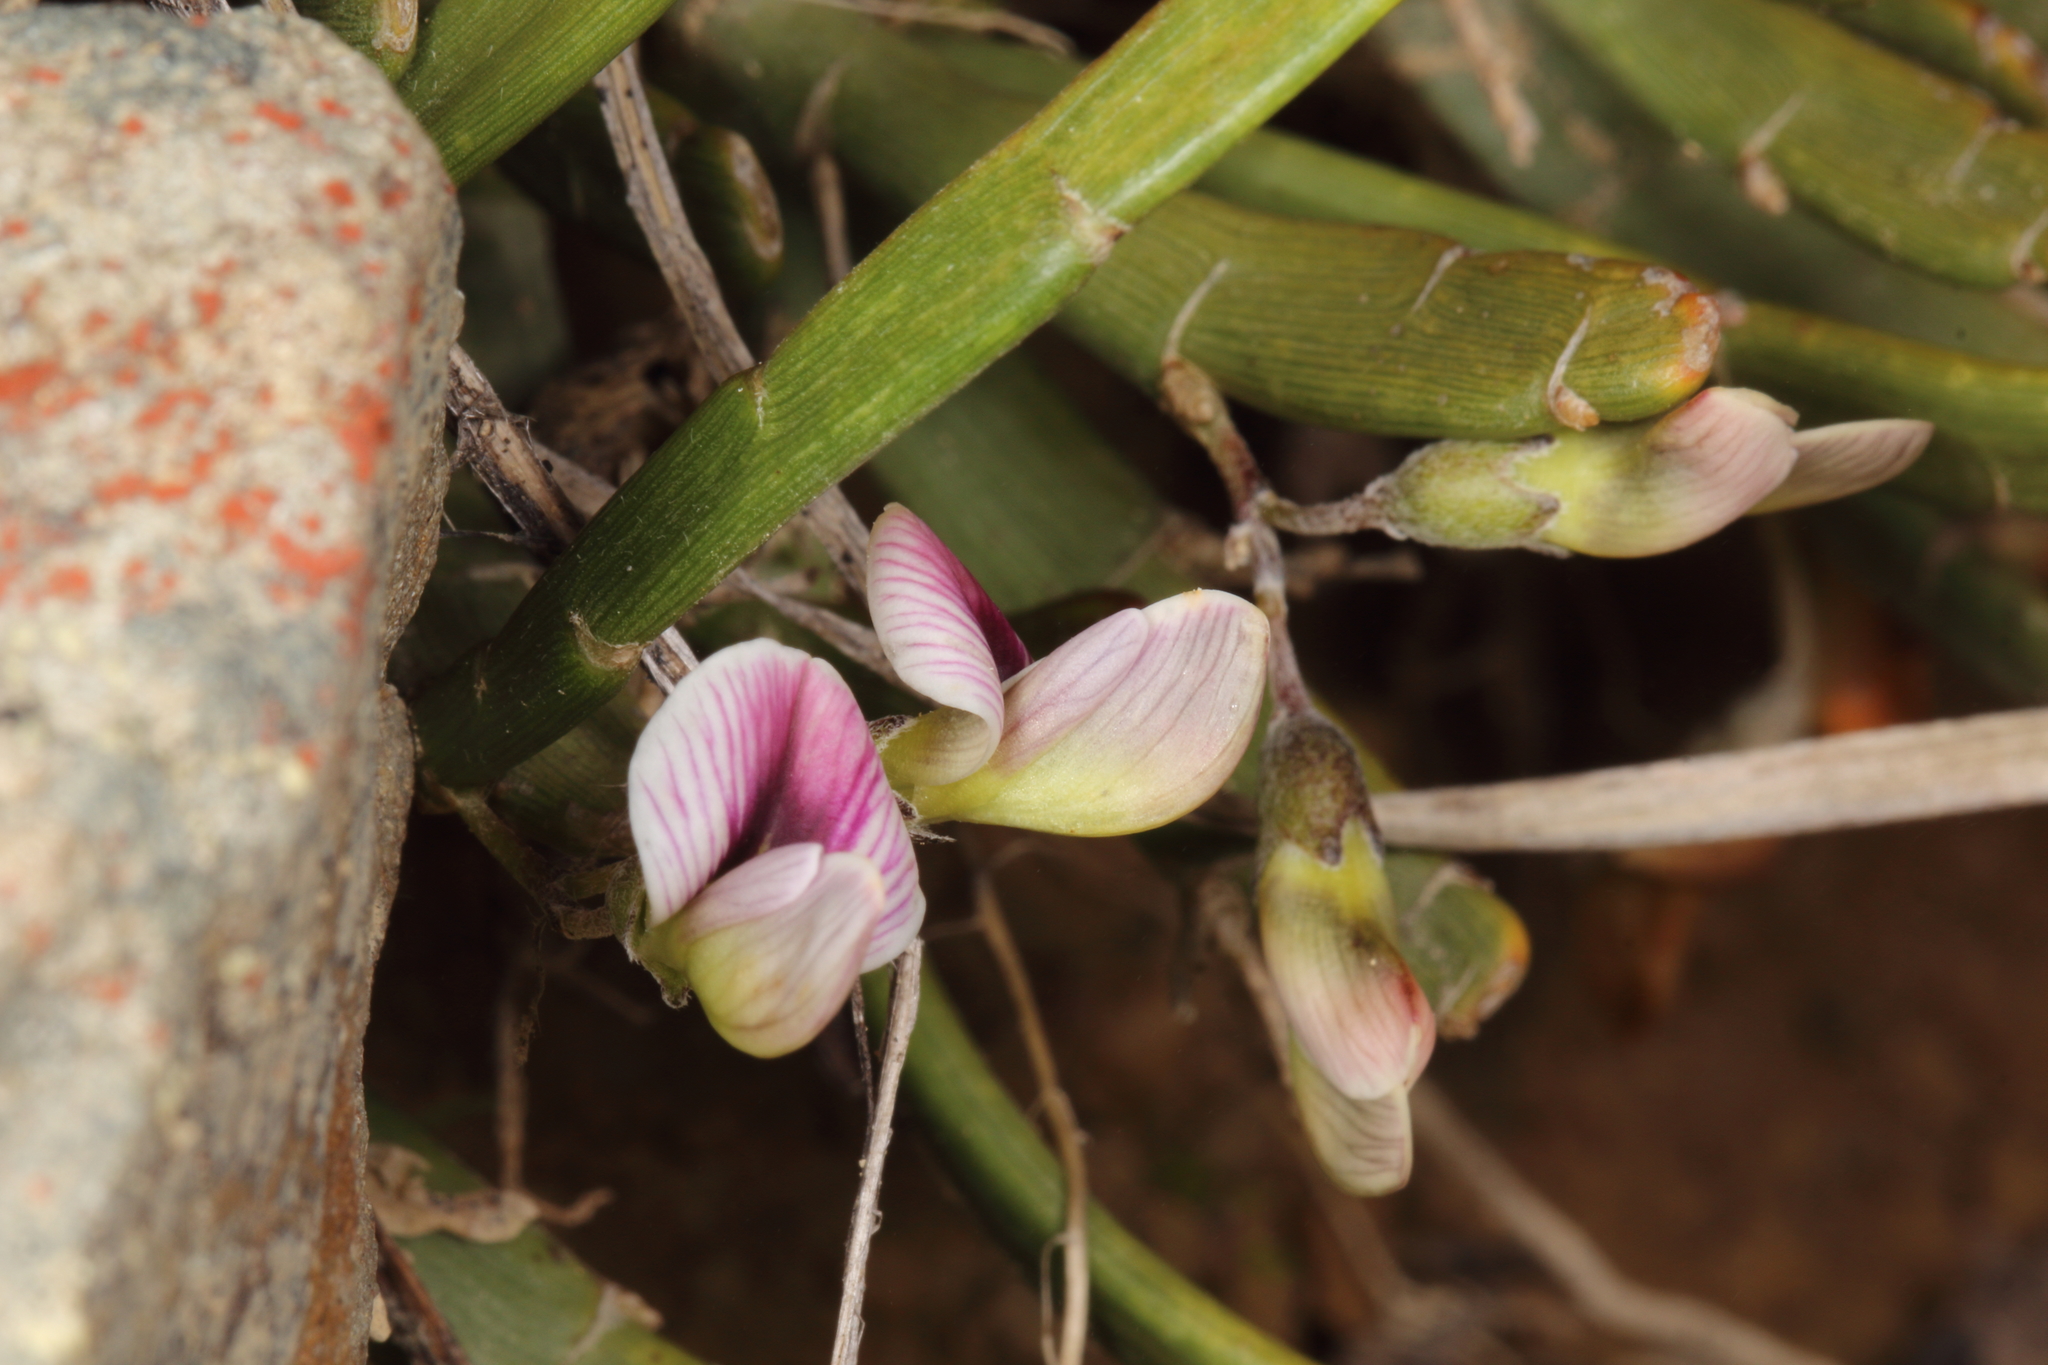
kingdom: Plantae
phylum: Tracheophyta
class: Magnoliopsida
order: Fabales
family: Fabaceae
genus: Carmichaelia
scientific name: Carmichaelia monroi
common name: Stout dwarf broom
